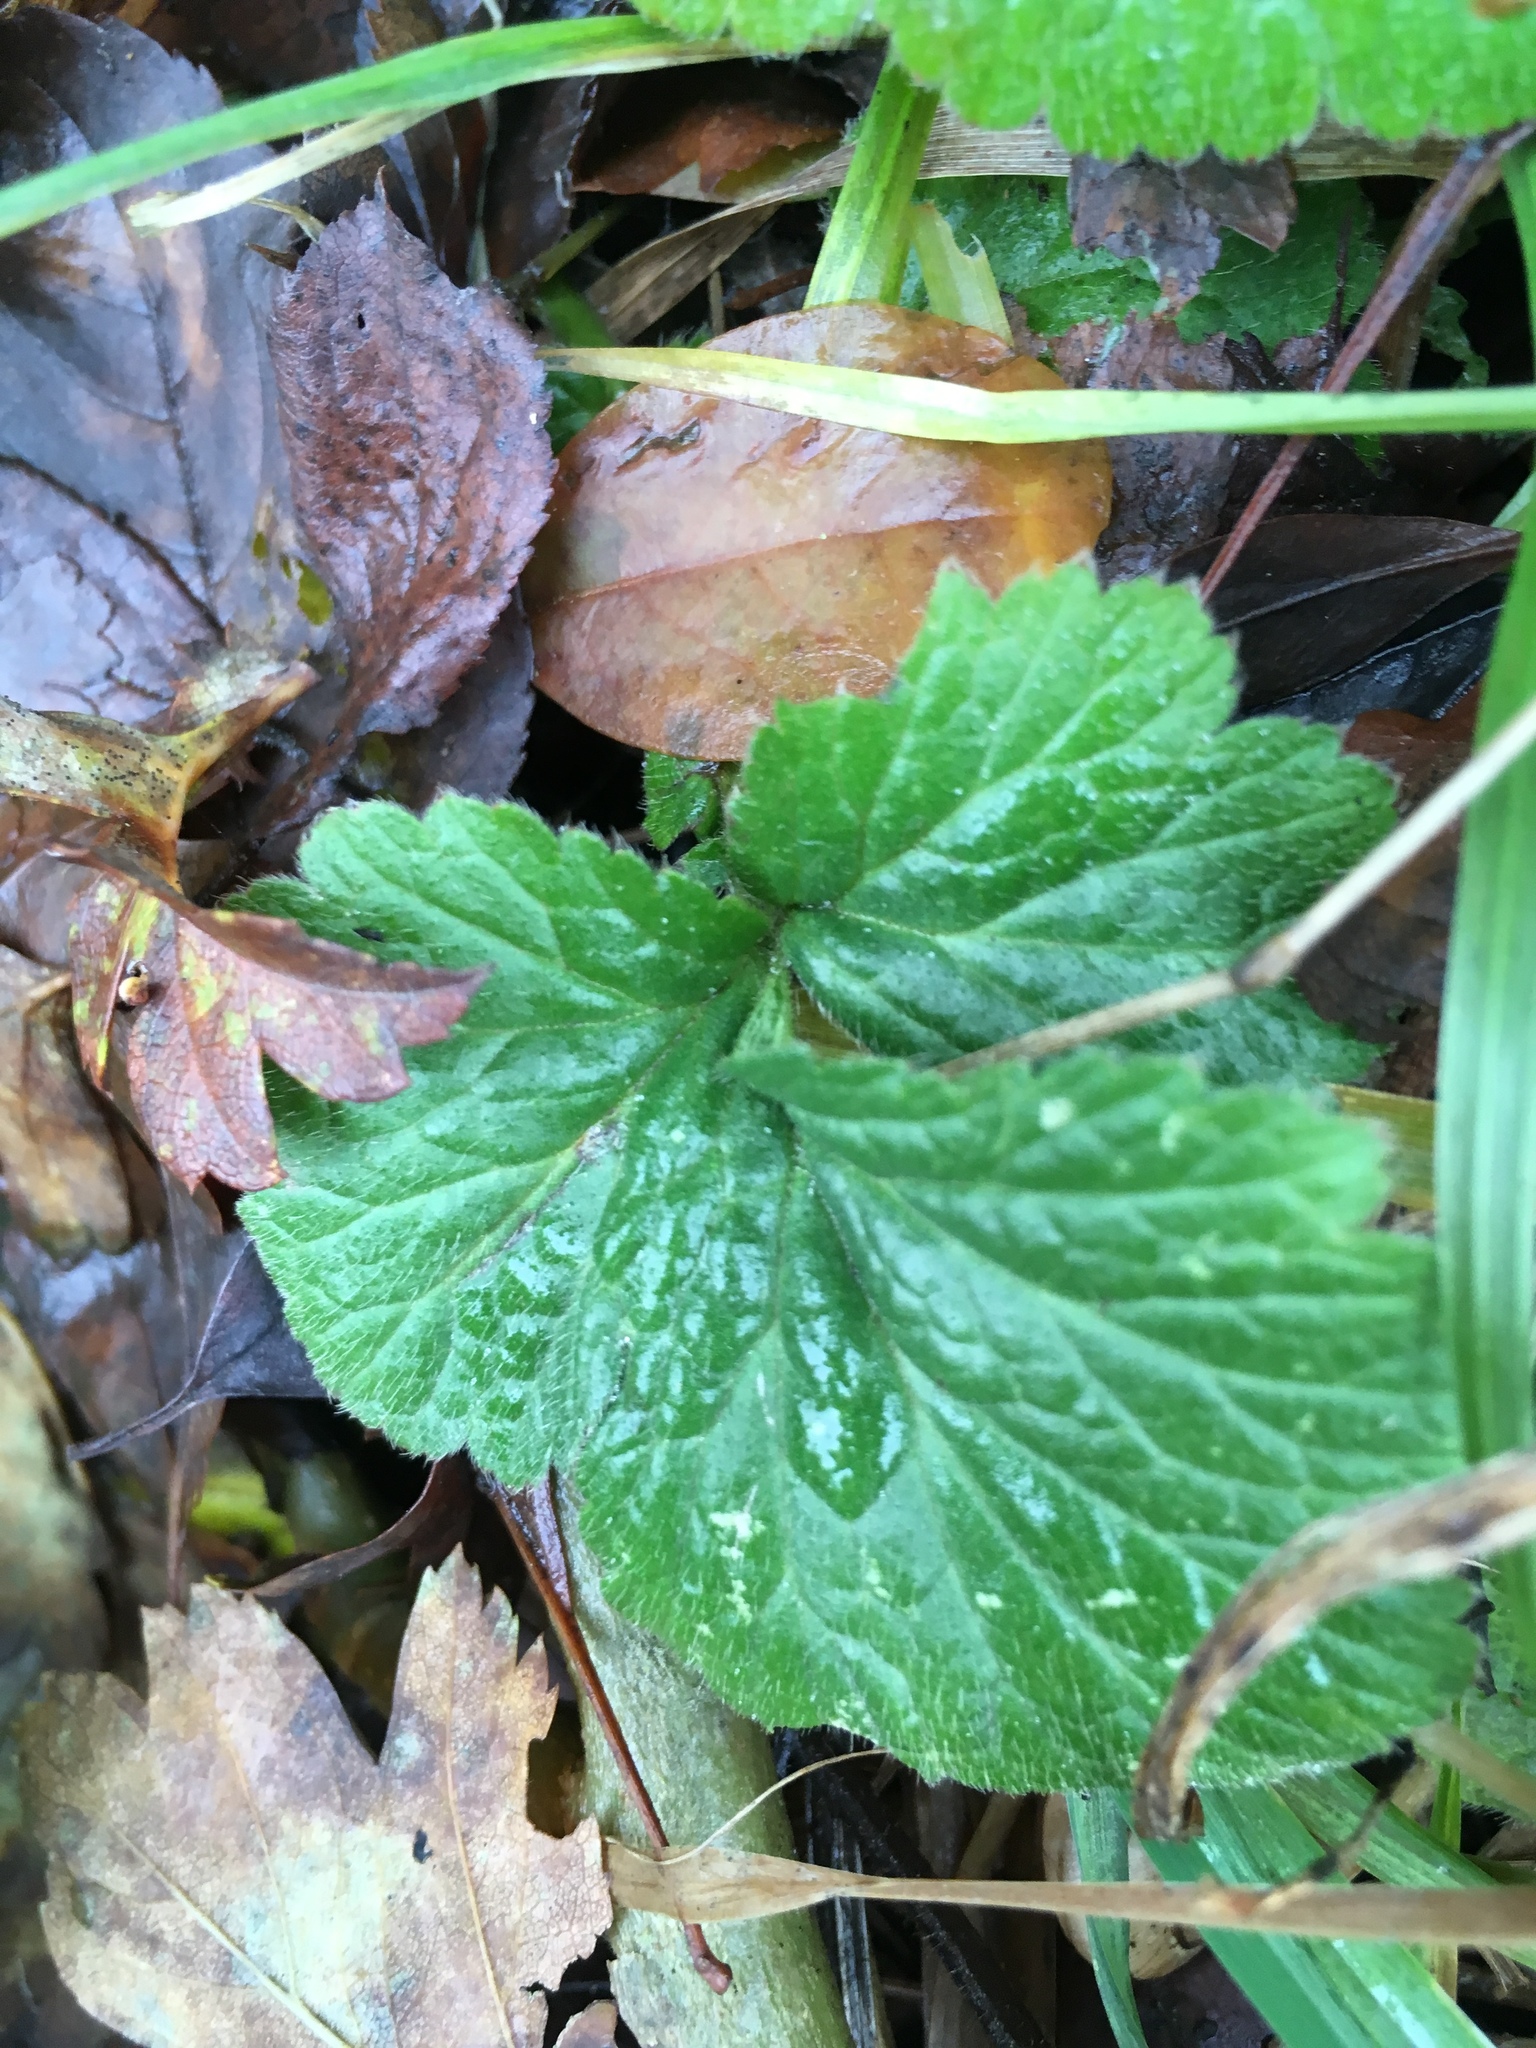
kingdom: Plantae
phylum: Tracheophyta
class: Magnoliopsida
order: Rosales
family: Rosaceae
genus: Geum
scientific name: Geum urbanum
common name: Wood avens
